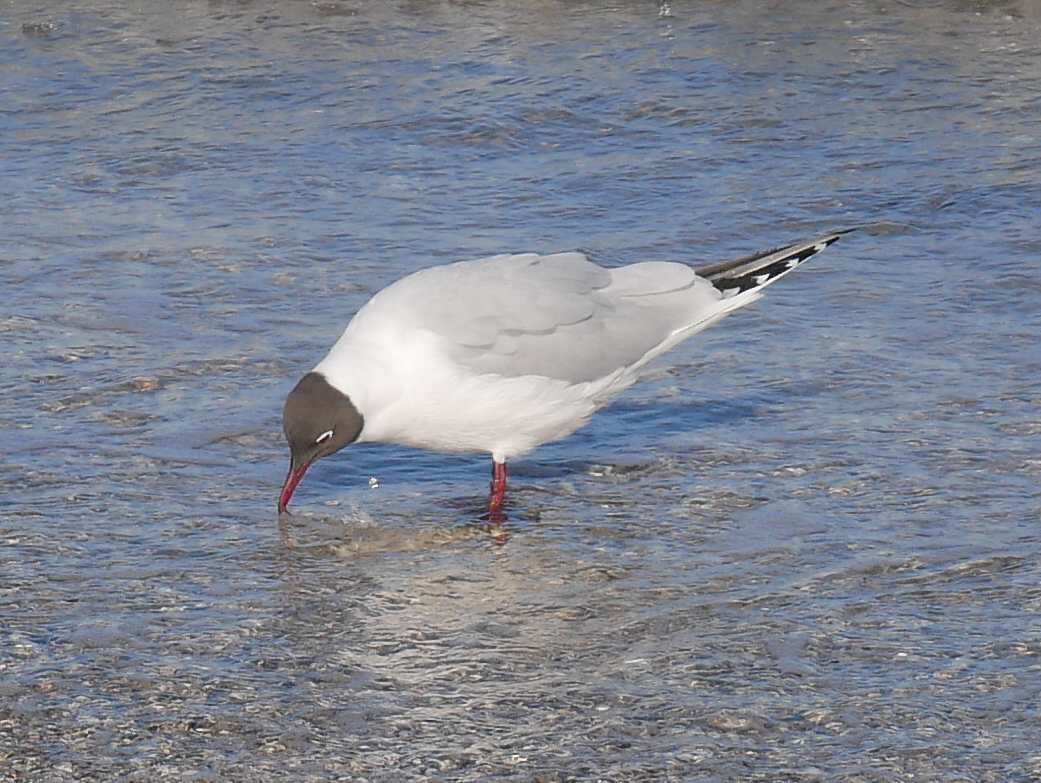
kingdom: Animalia
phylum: Chordata
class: Aves
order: Charadriiformes
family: Laridae
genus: Chroicocephalus
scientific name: Chroicocephalus ridibundus
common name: Black-headed gull
